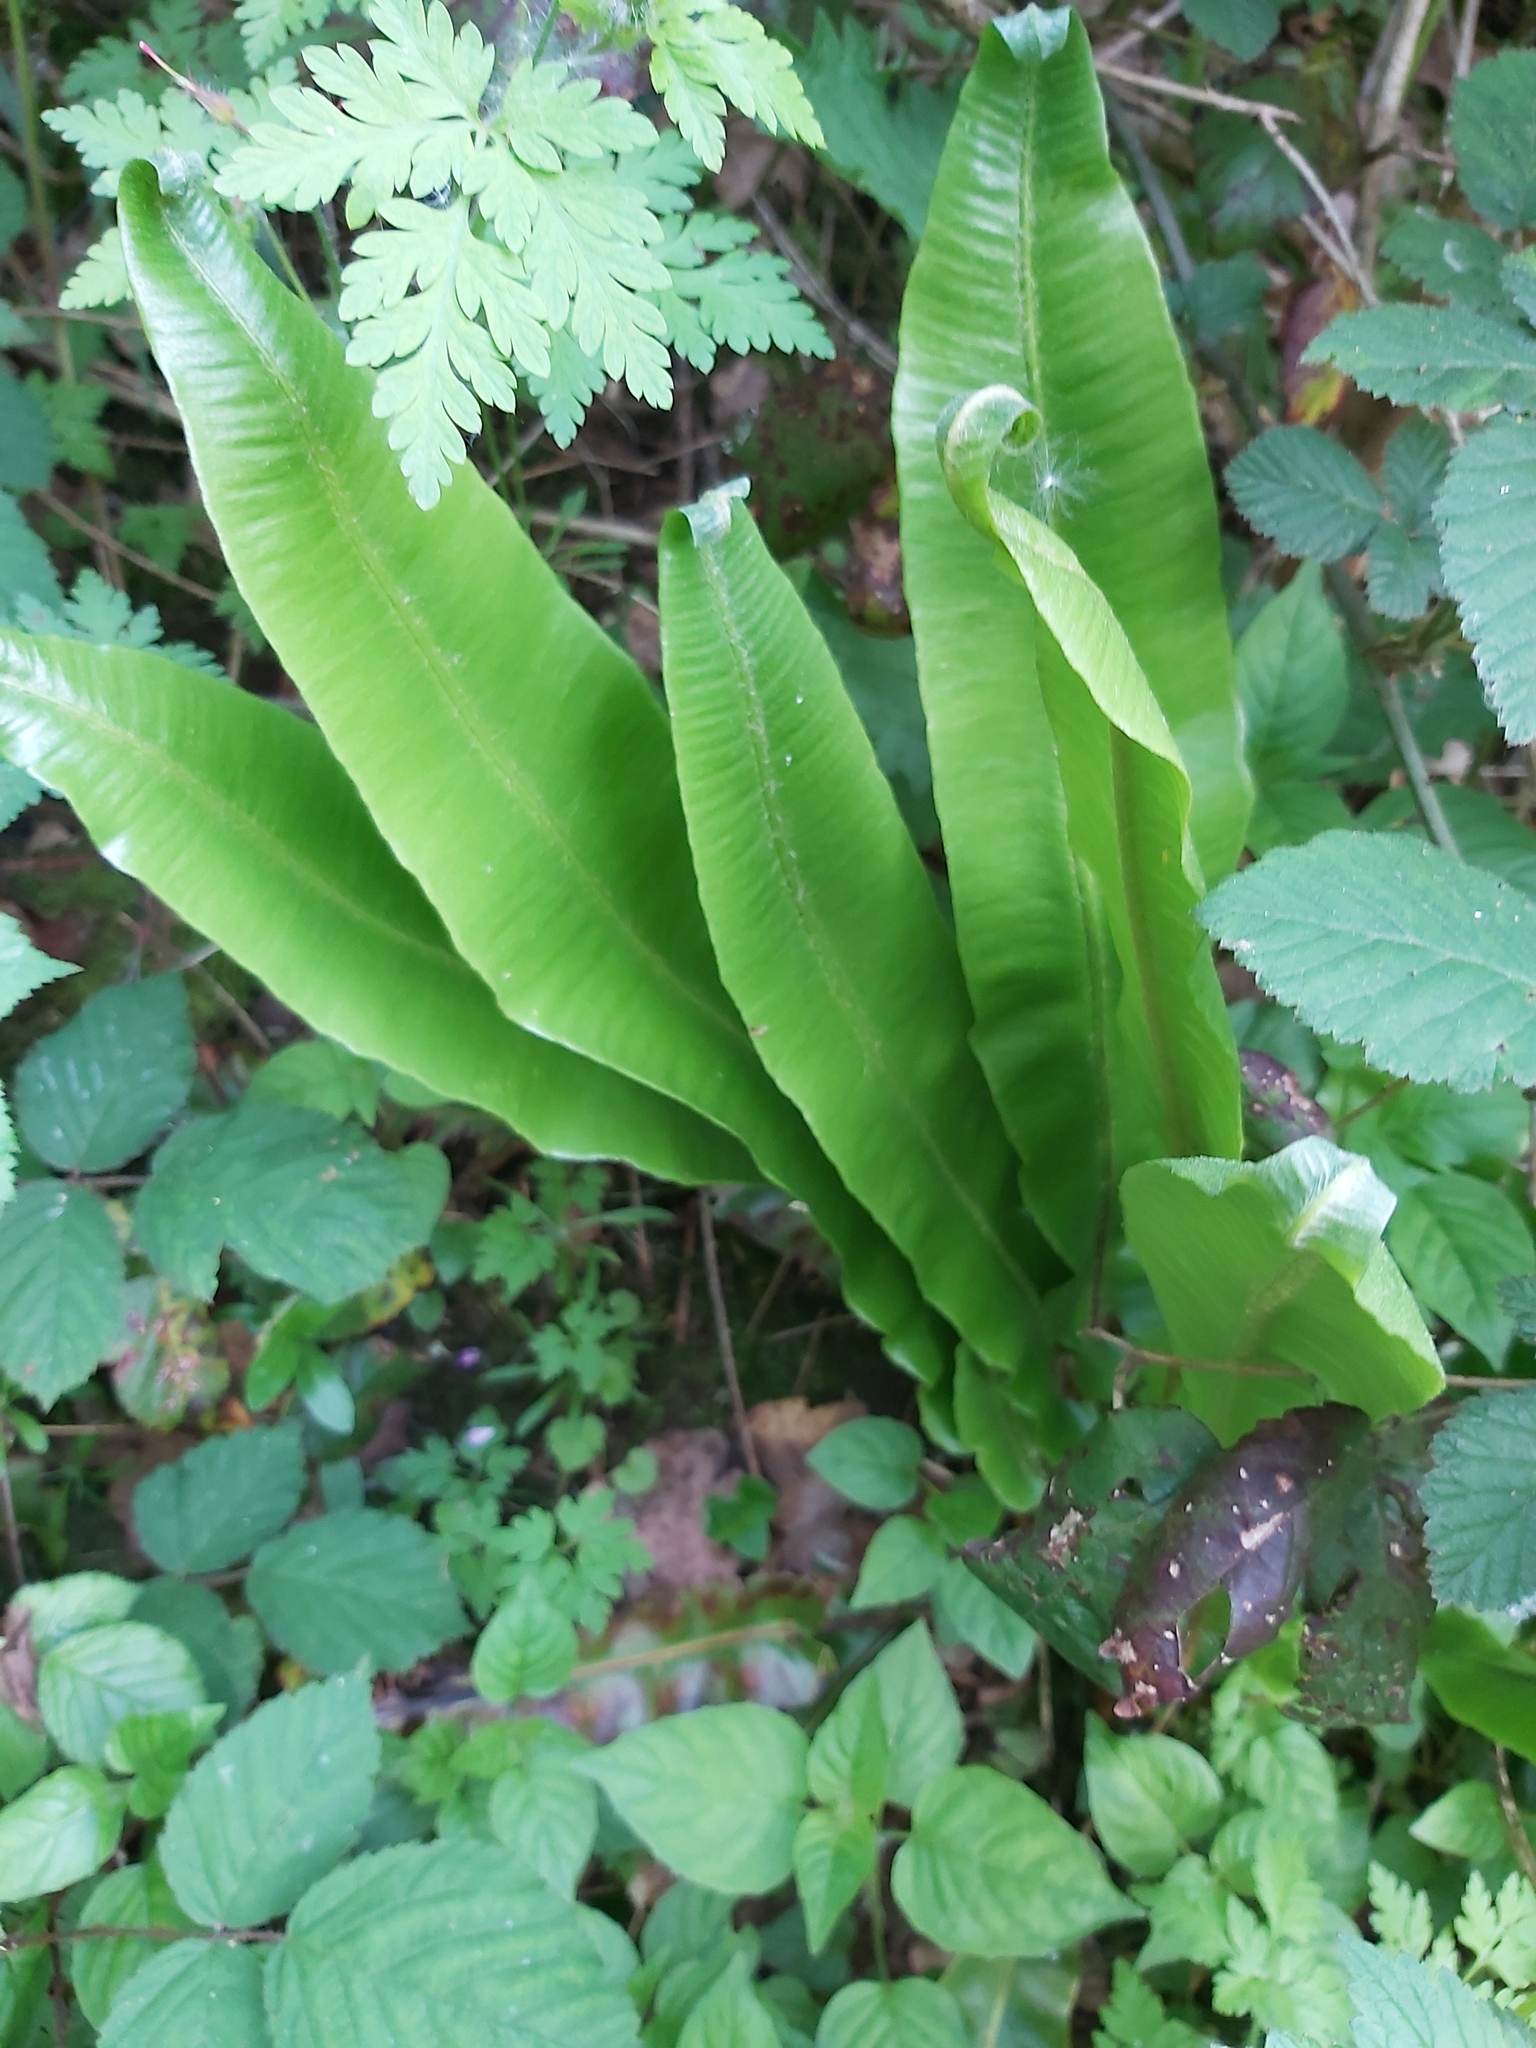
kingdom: Plantae
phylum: Tracheophyta
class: Polypodiopsida
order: Polypodiales
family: Aspleniaceae
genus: Asplenium
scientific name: Asplenium scolopendrium
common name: Hart's-tongue fern
